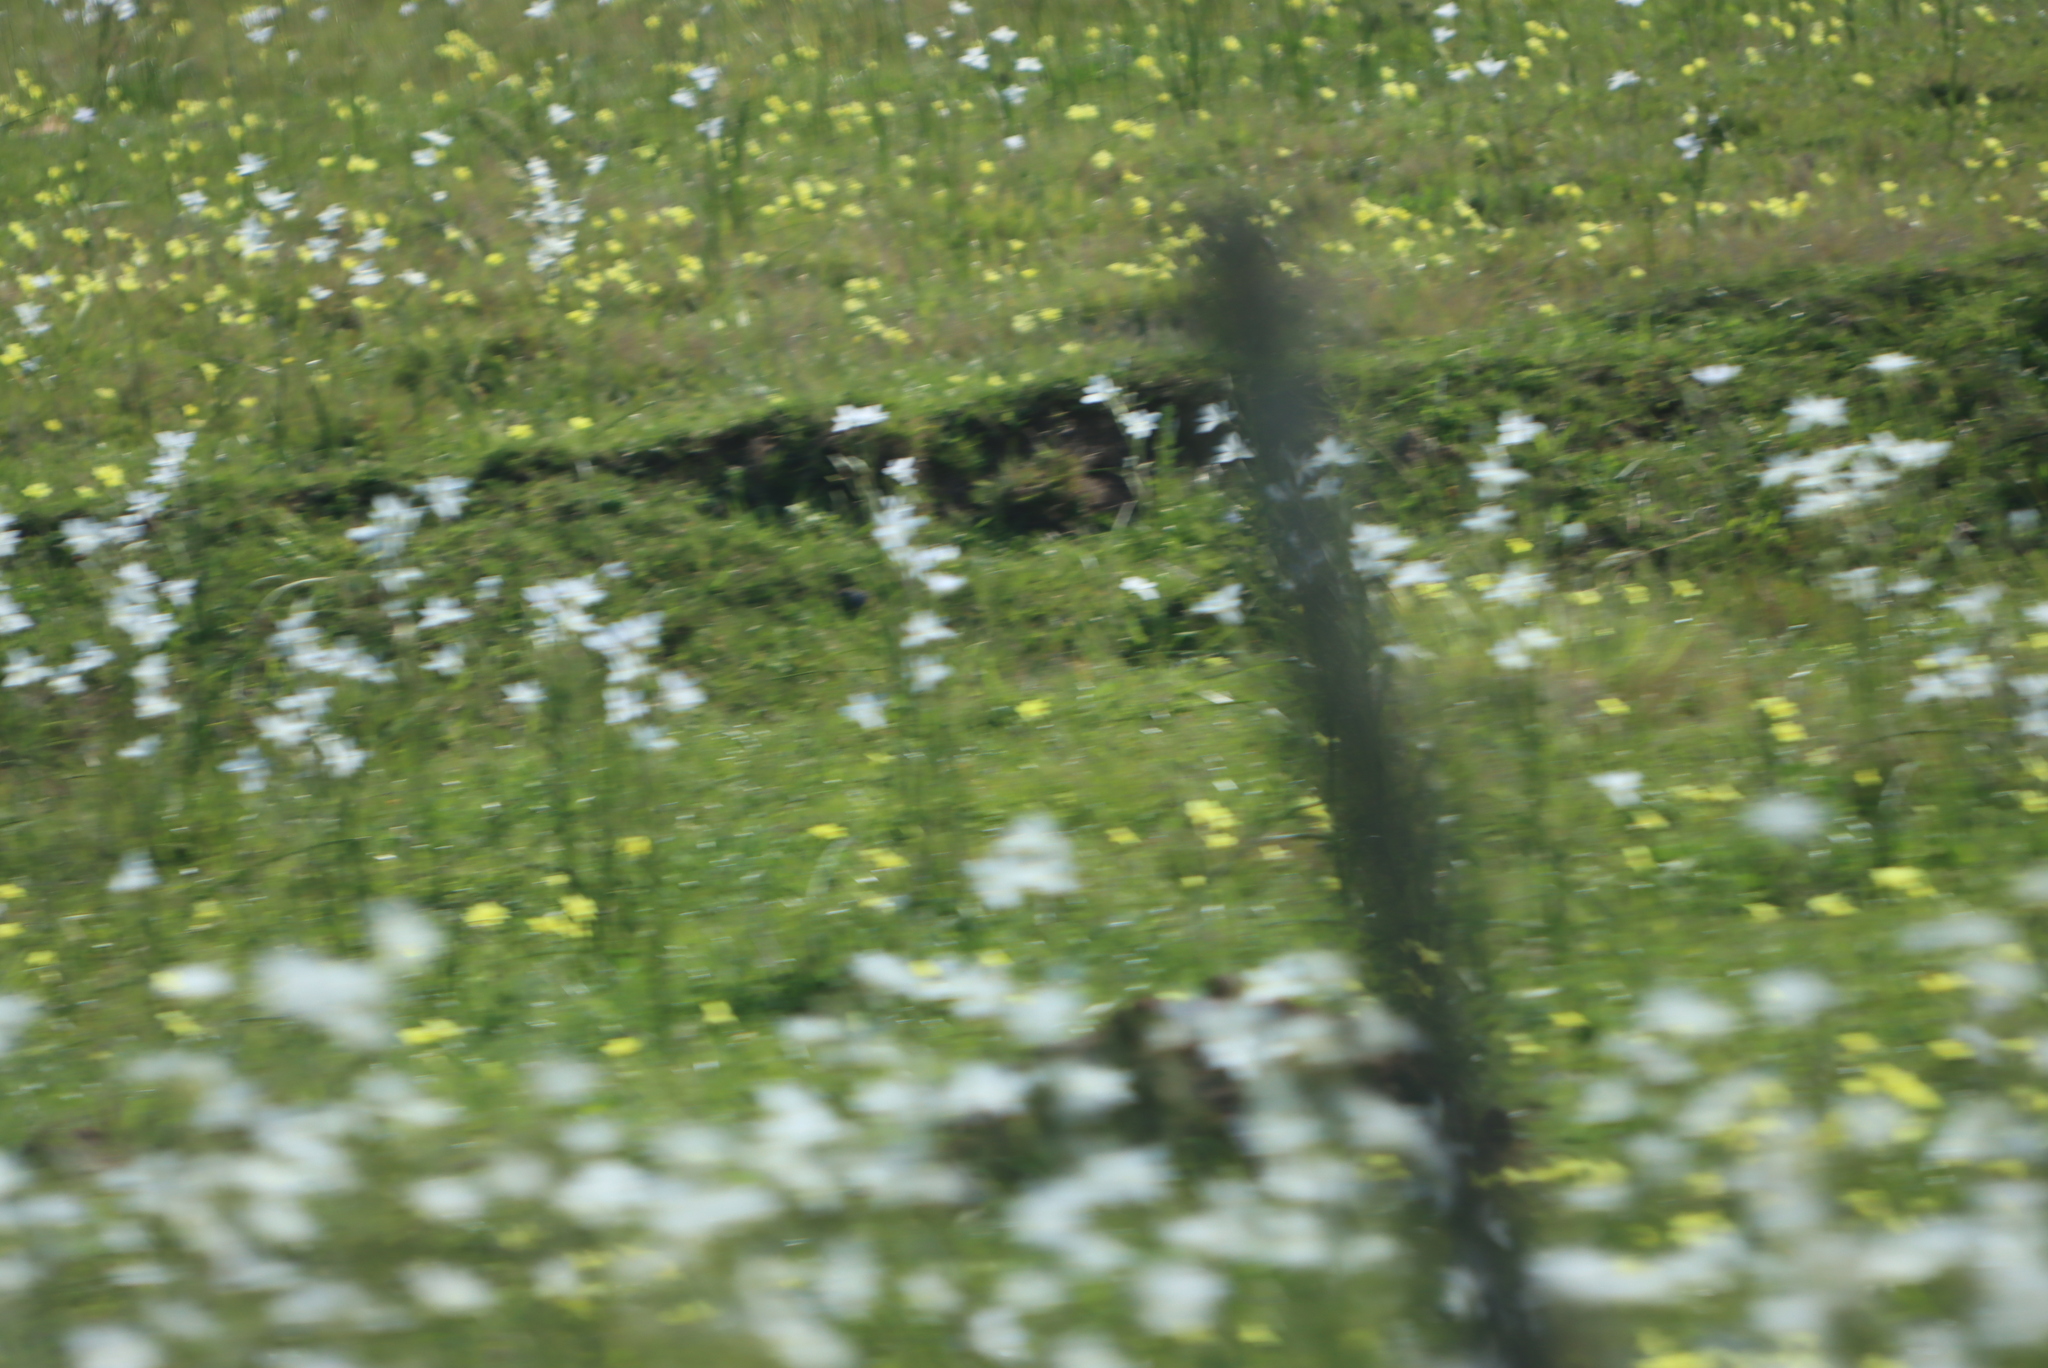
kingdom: Plantae
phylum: Tracheophyta
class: Liliopsida
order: Asparagales
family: Iridaceae
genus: Moraea
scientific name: Moraea polyanthos
